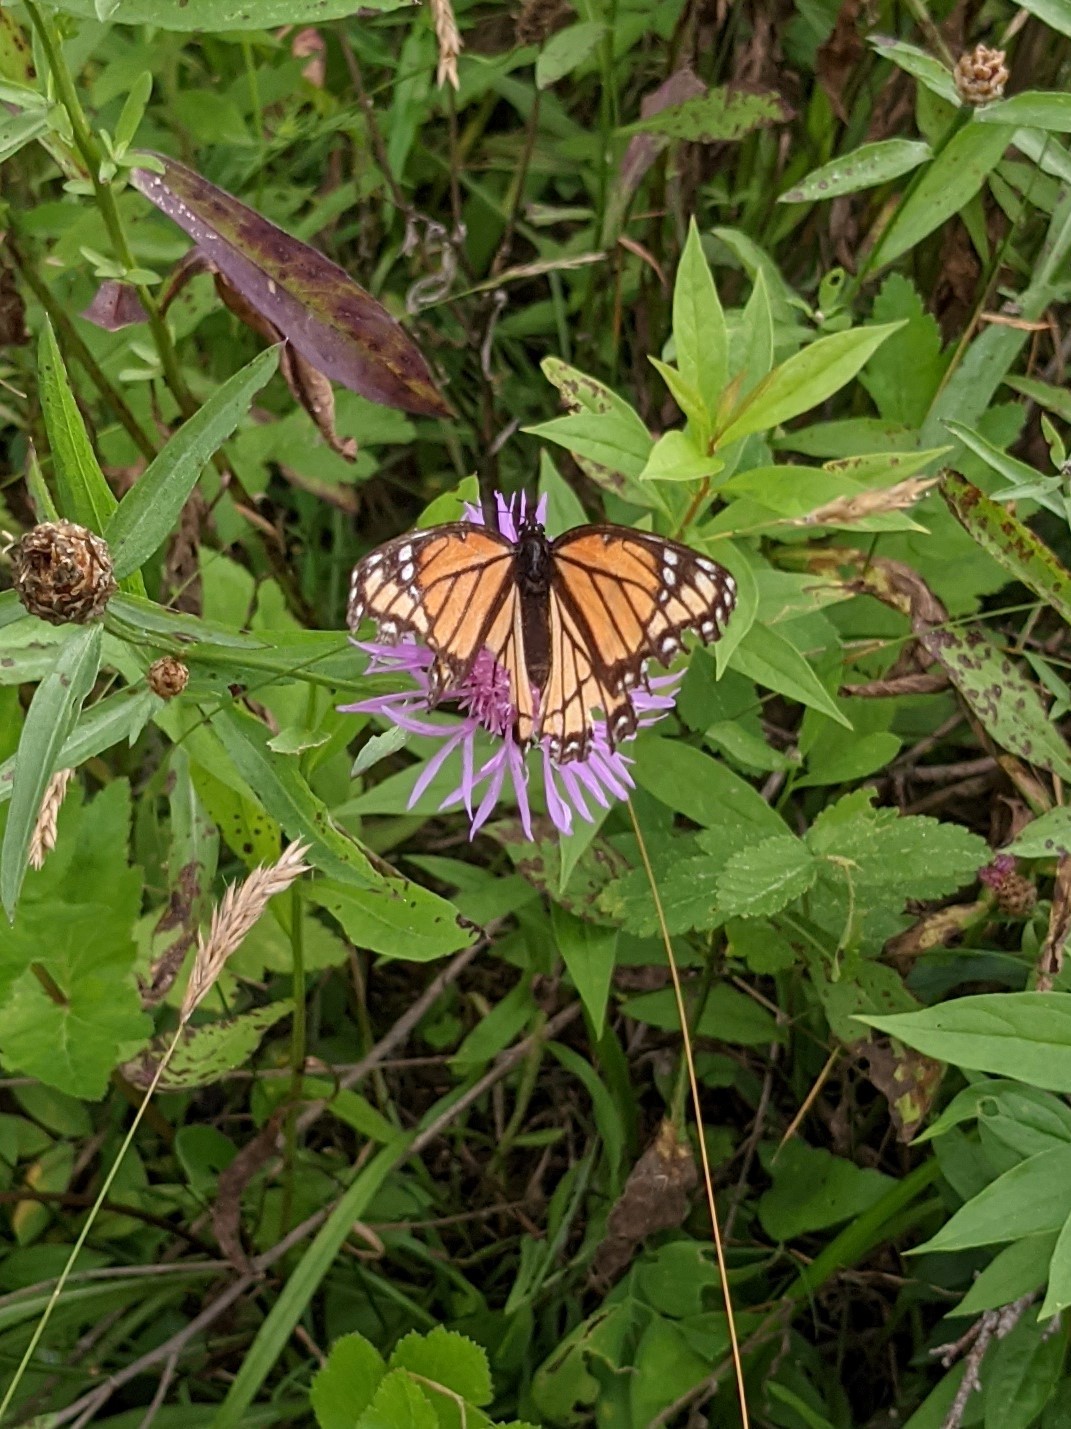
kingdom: Animalia
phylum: Arthropoda
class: Insecta
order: Lepidoptera
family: Nymphalidae
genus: Limenitis
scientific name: Limenitis archippus
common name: Viceroy
